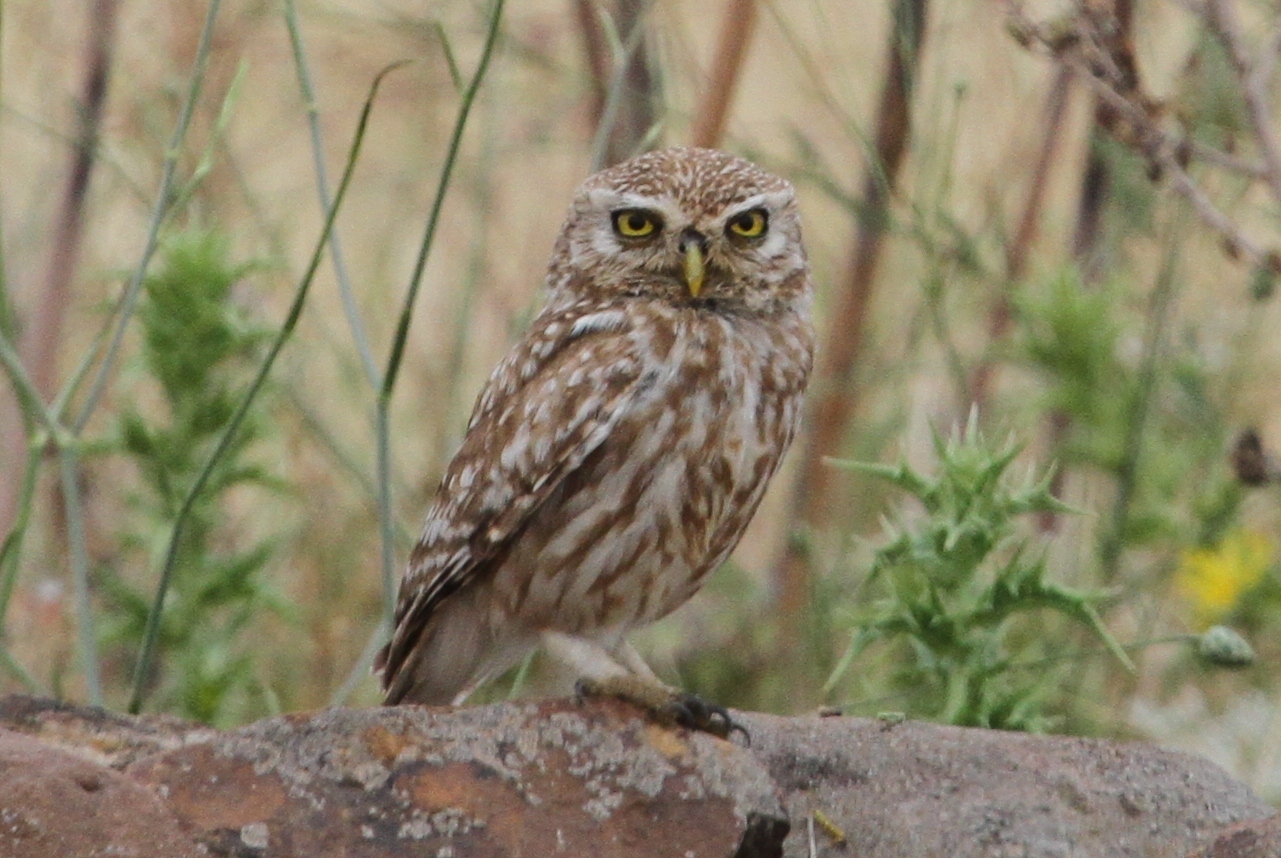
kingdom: Animalia
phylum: Chordata
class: Aves
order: Strigiformes
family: Strigidae
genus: Athene
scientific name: Athene noctua
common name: Little owl
